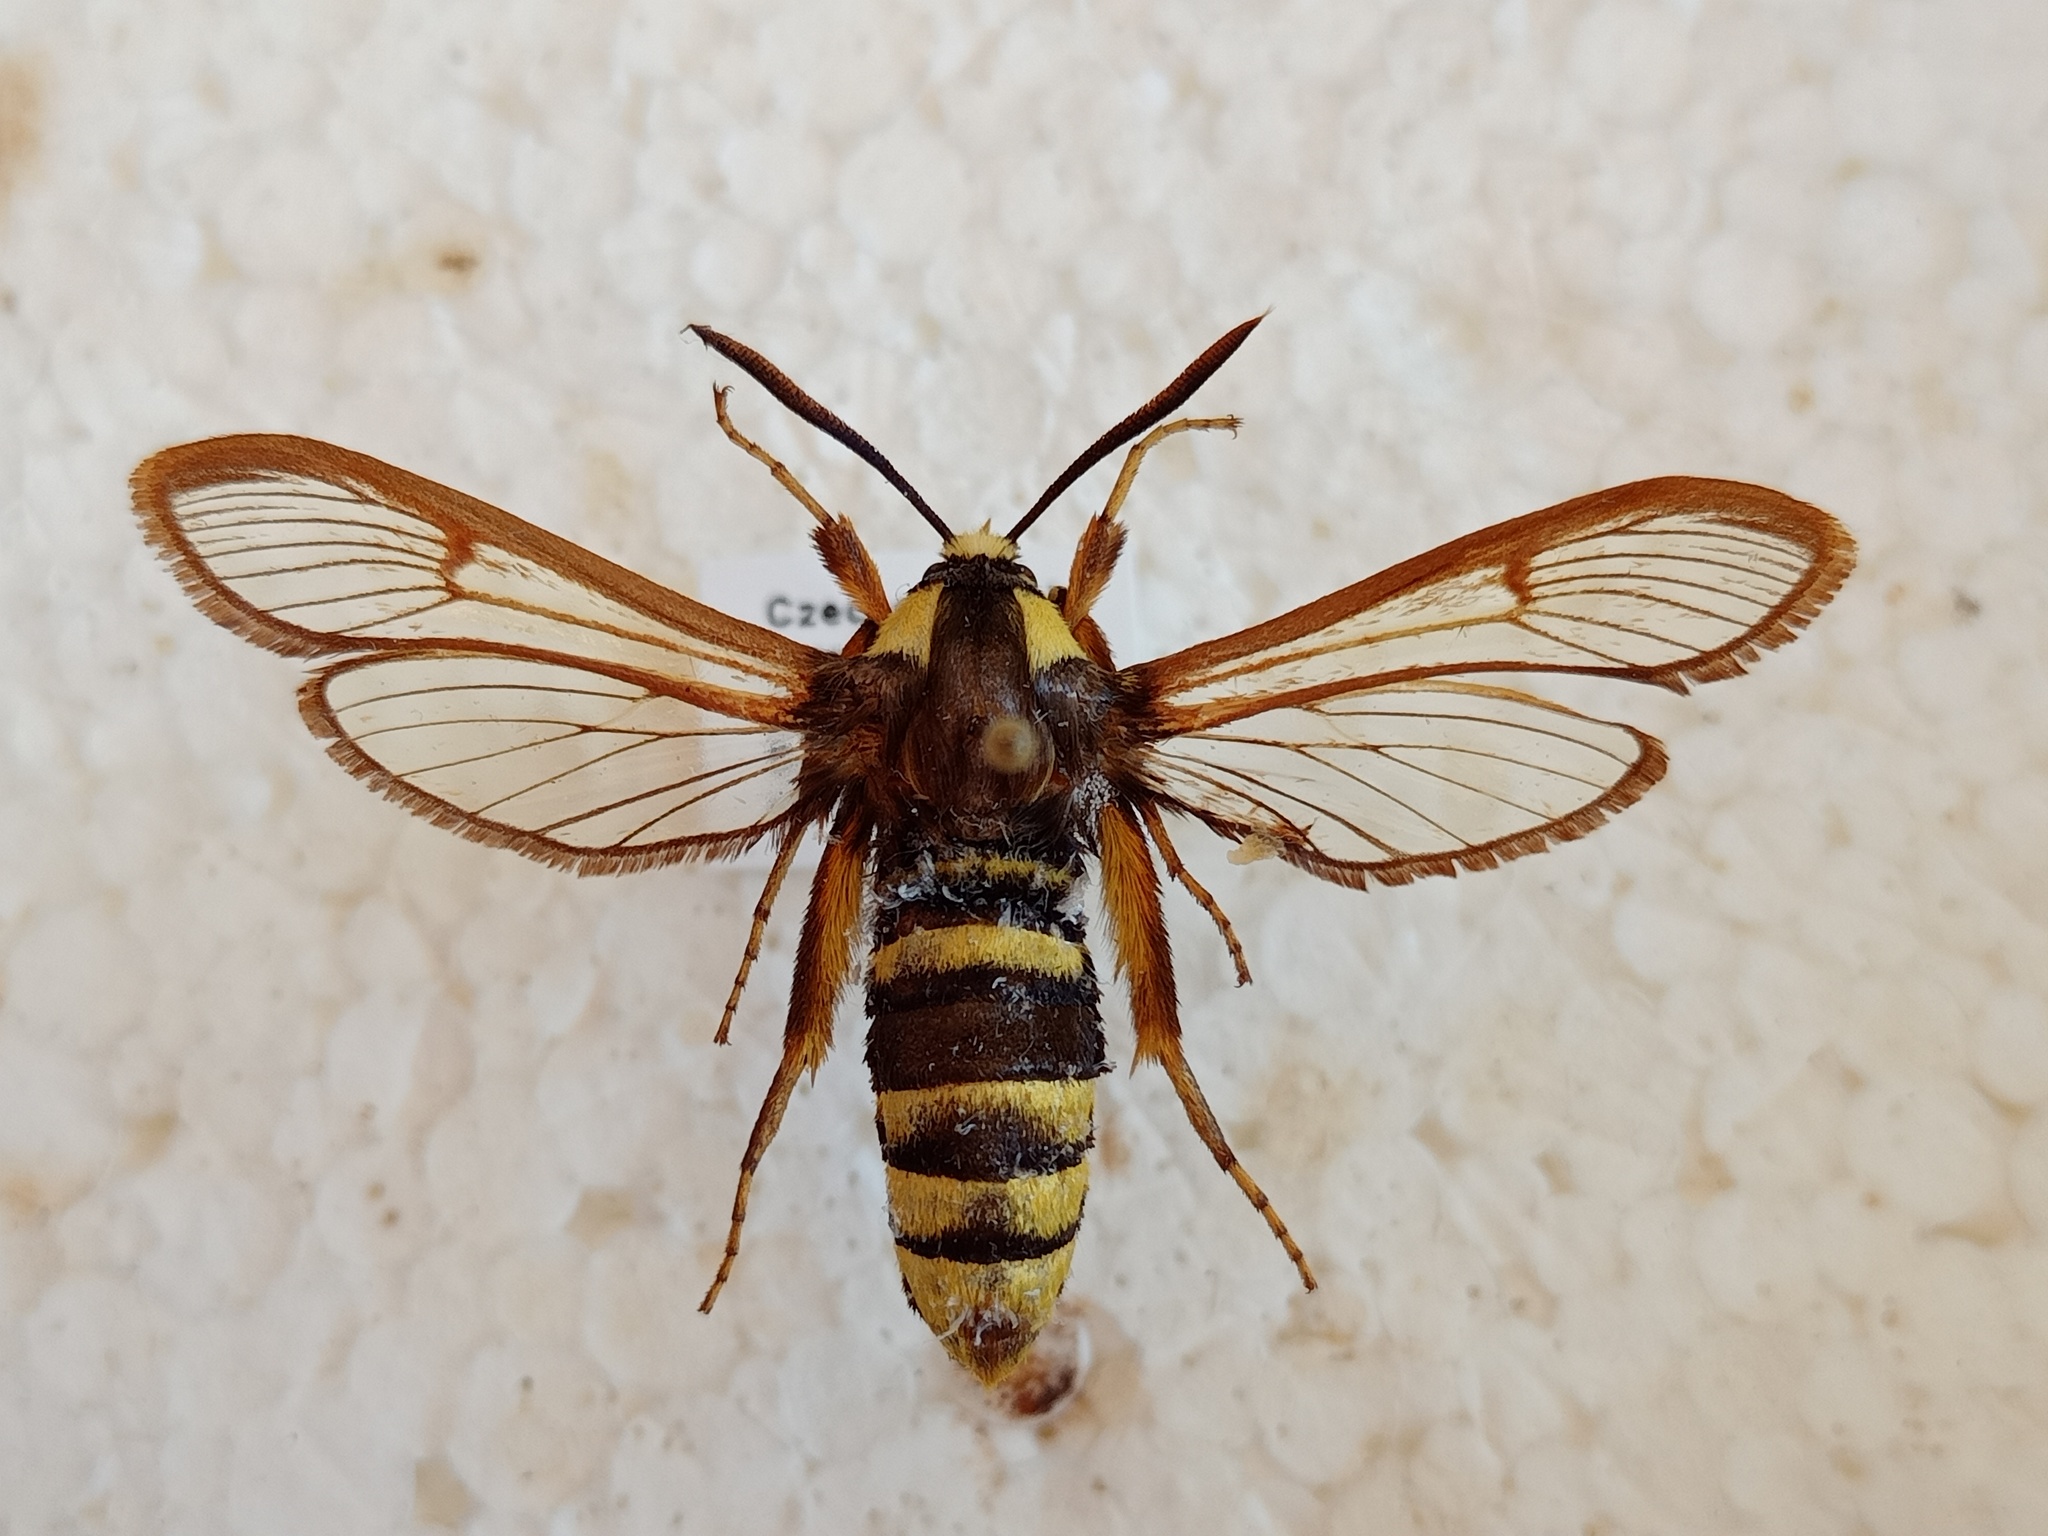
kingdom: Animalia
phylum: Arthropoda
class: Insecta
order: Lepidoptera
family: Sesiidae
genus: Sesia
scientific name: Sesia apiformis
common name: Hornet moth
